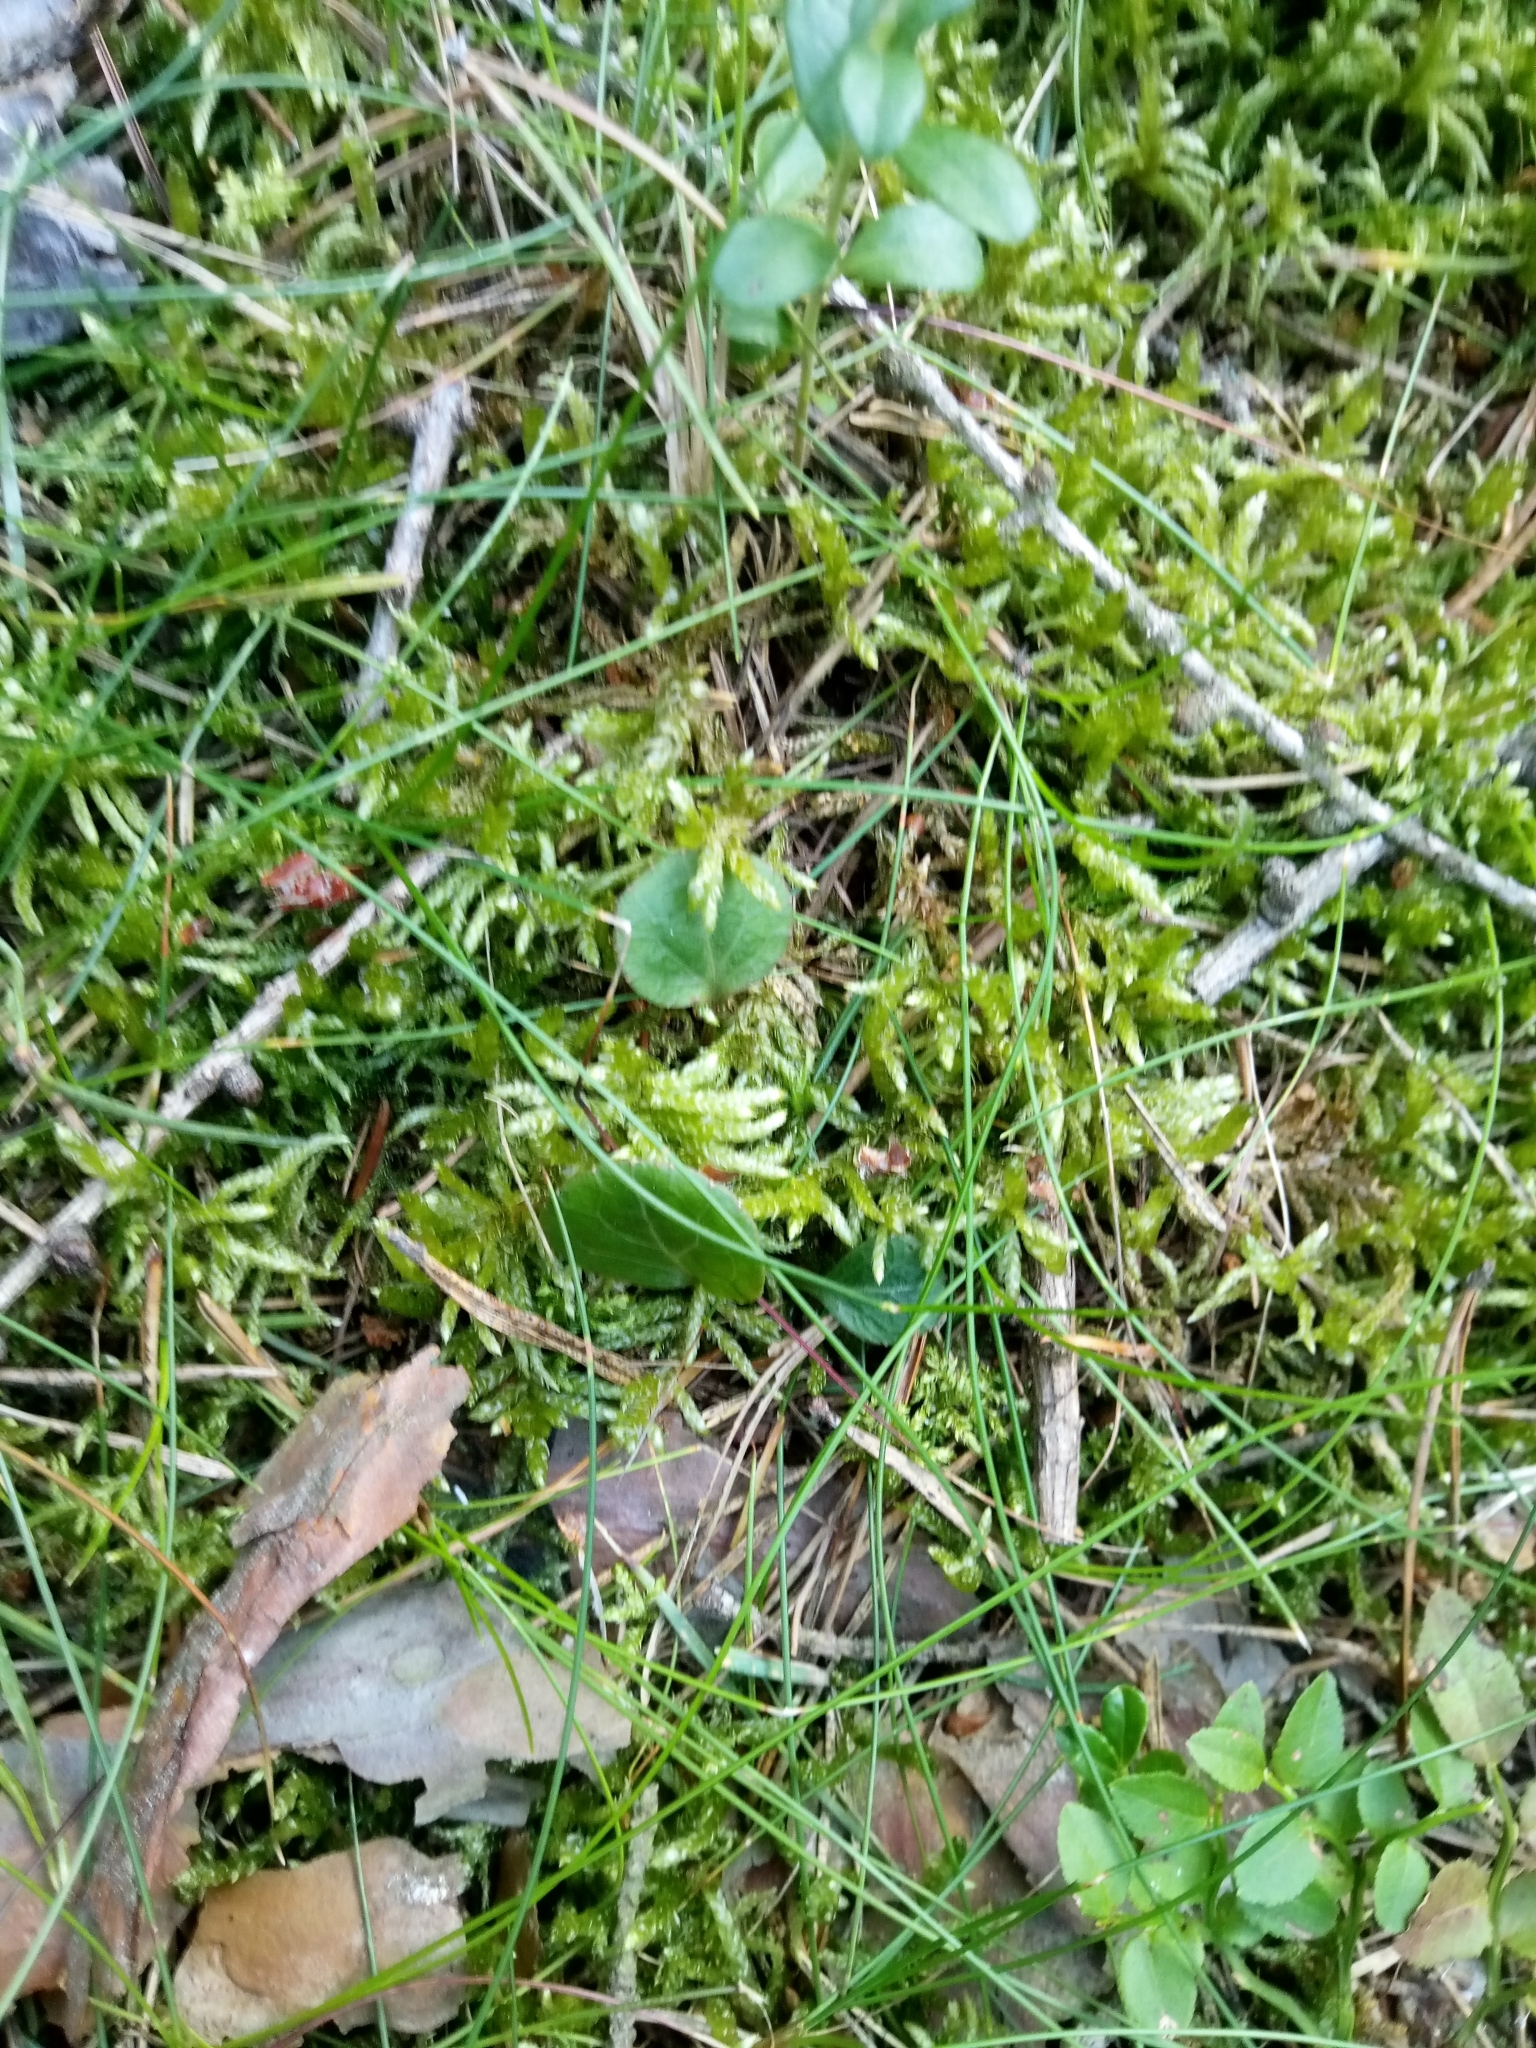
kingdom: Plantae
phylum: Tracheophyta
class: Magnoliopsida
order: Ericales
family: Ericaceae
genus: Pyrola
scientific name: Pyrola chlorantha
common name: Green wintergreen
